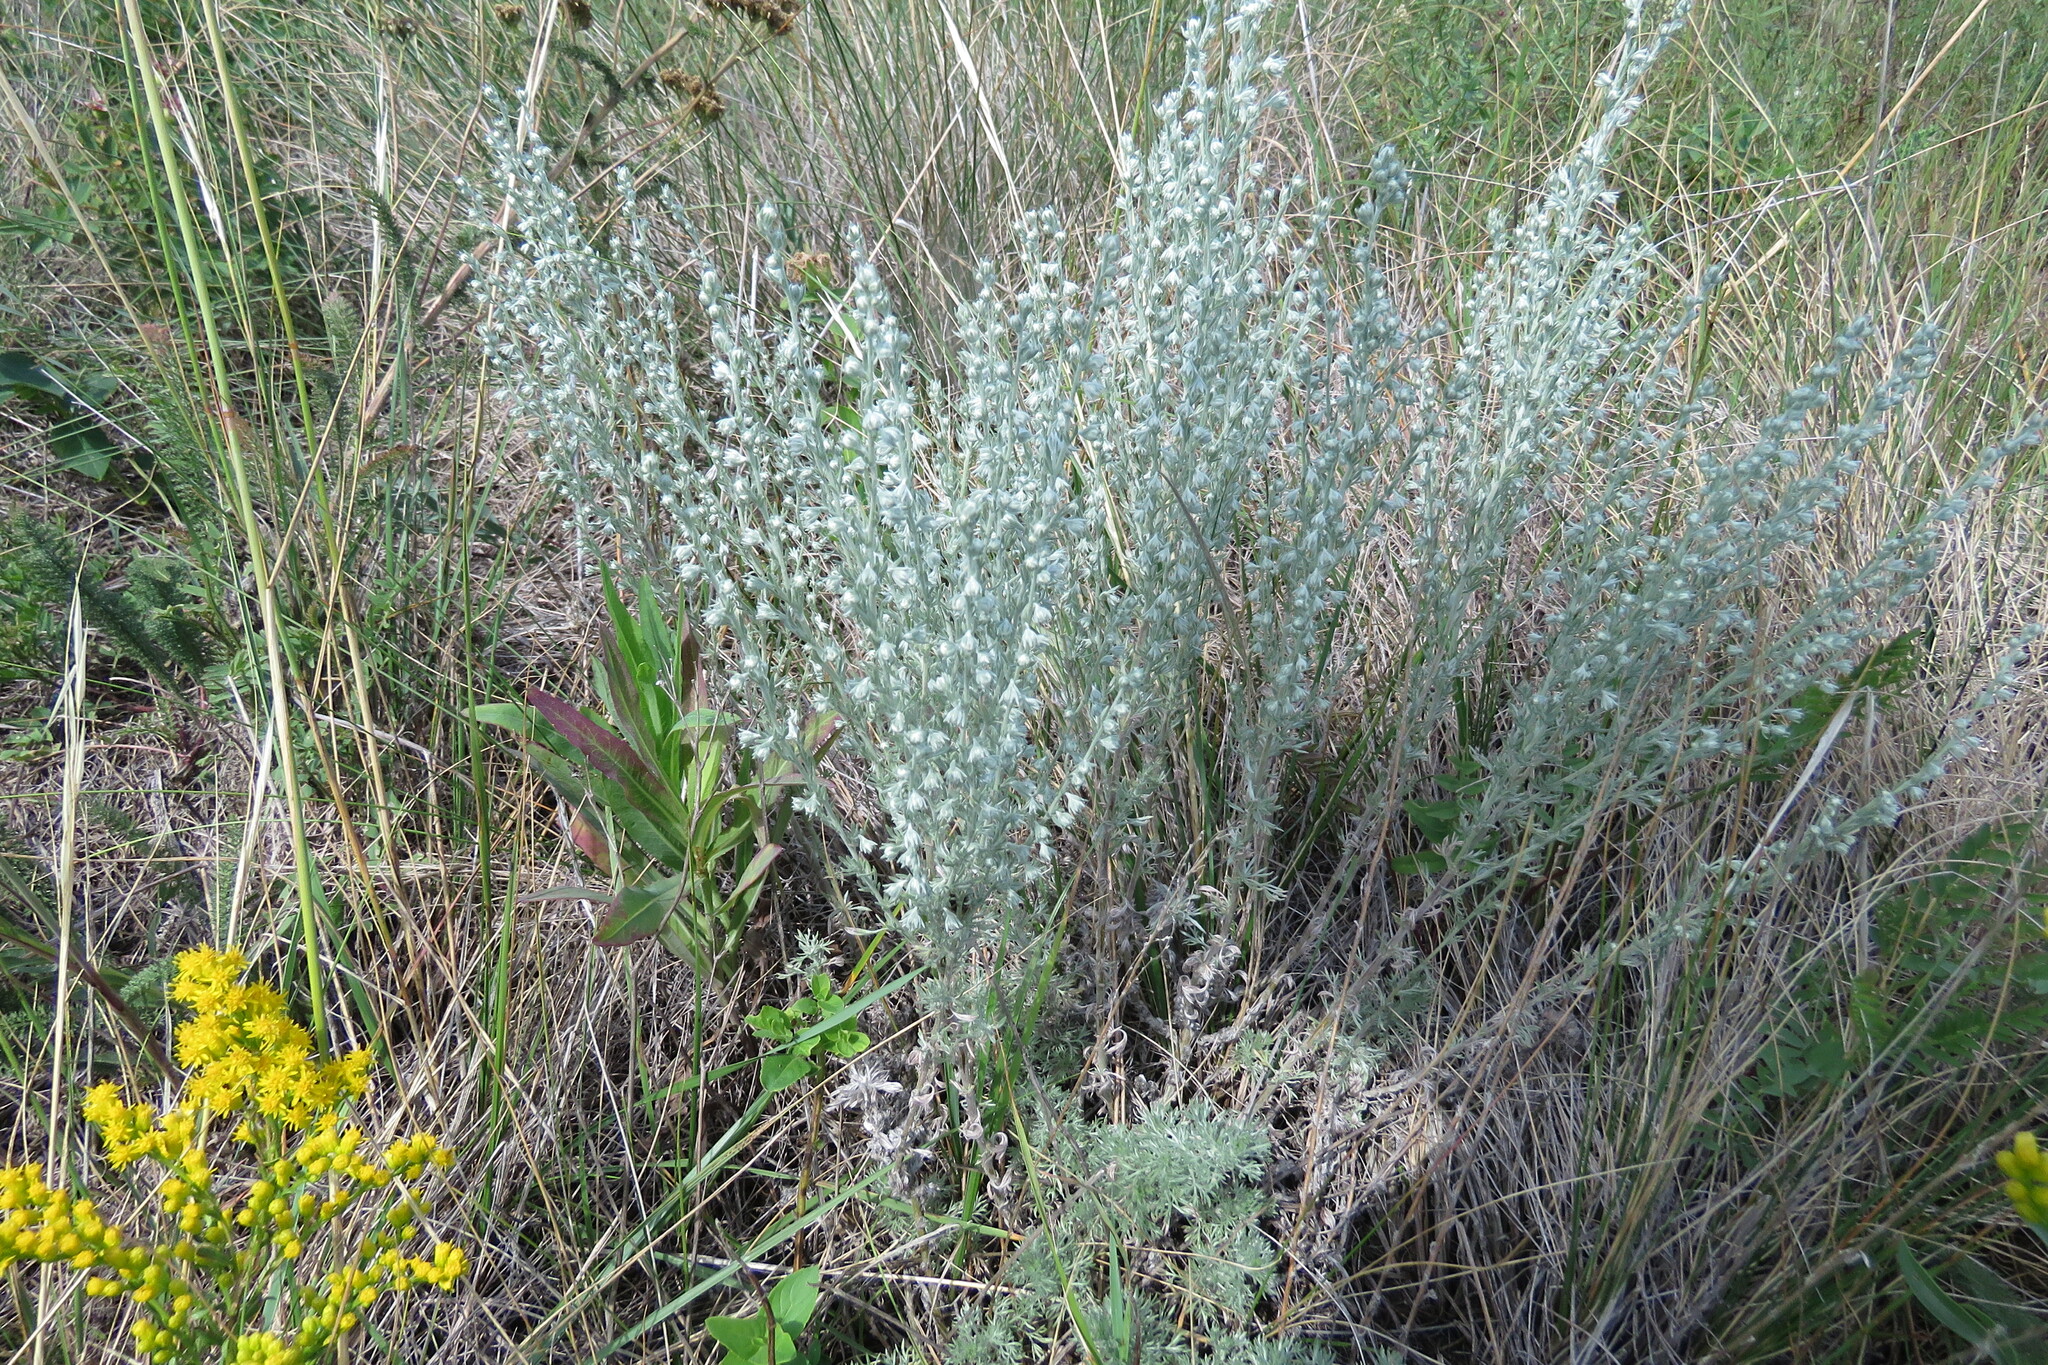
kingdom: Plantae
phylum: Tracheophyta
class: Magnoliopsida
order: Asterales
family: Asteraceae
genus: Artemisia
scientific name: Artemisia frigida
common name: Prairie sagewort
